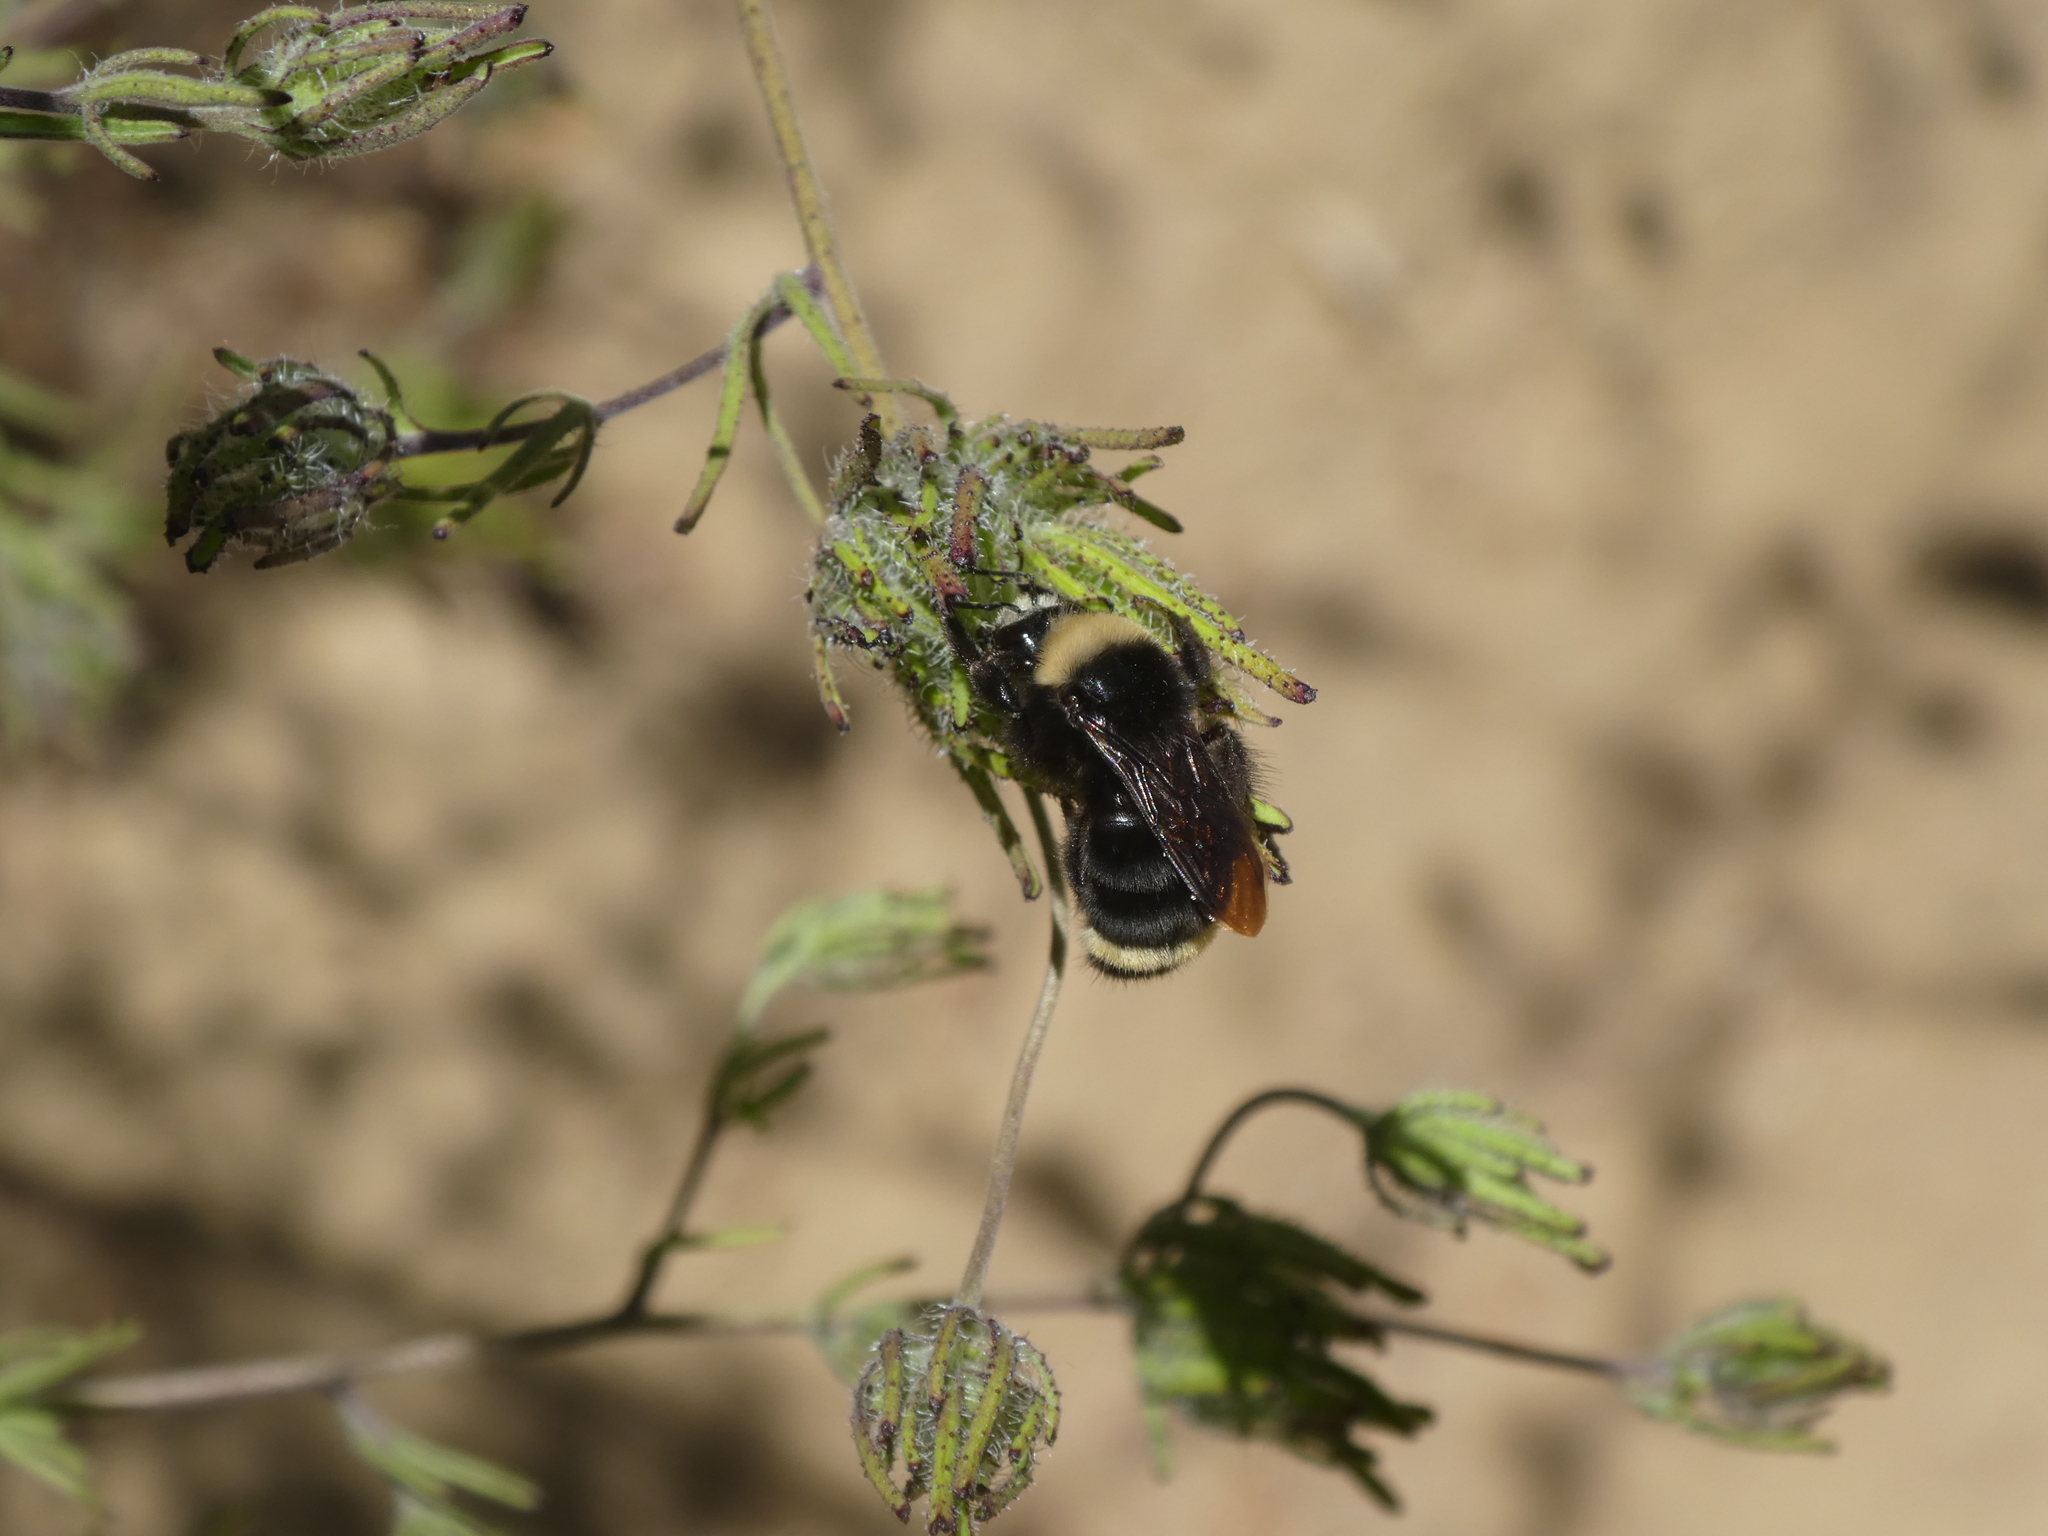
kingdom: Animalia
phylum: Arthropoda
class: Insecta
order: Hymenoptera
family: Apidae
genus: Bombus
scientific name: Bombus vosnesenskii
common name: Vosnesensky bumble bee
